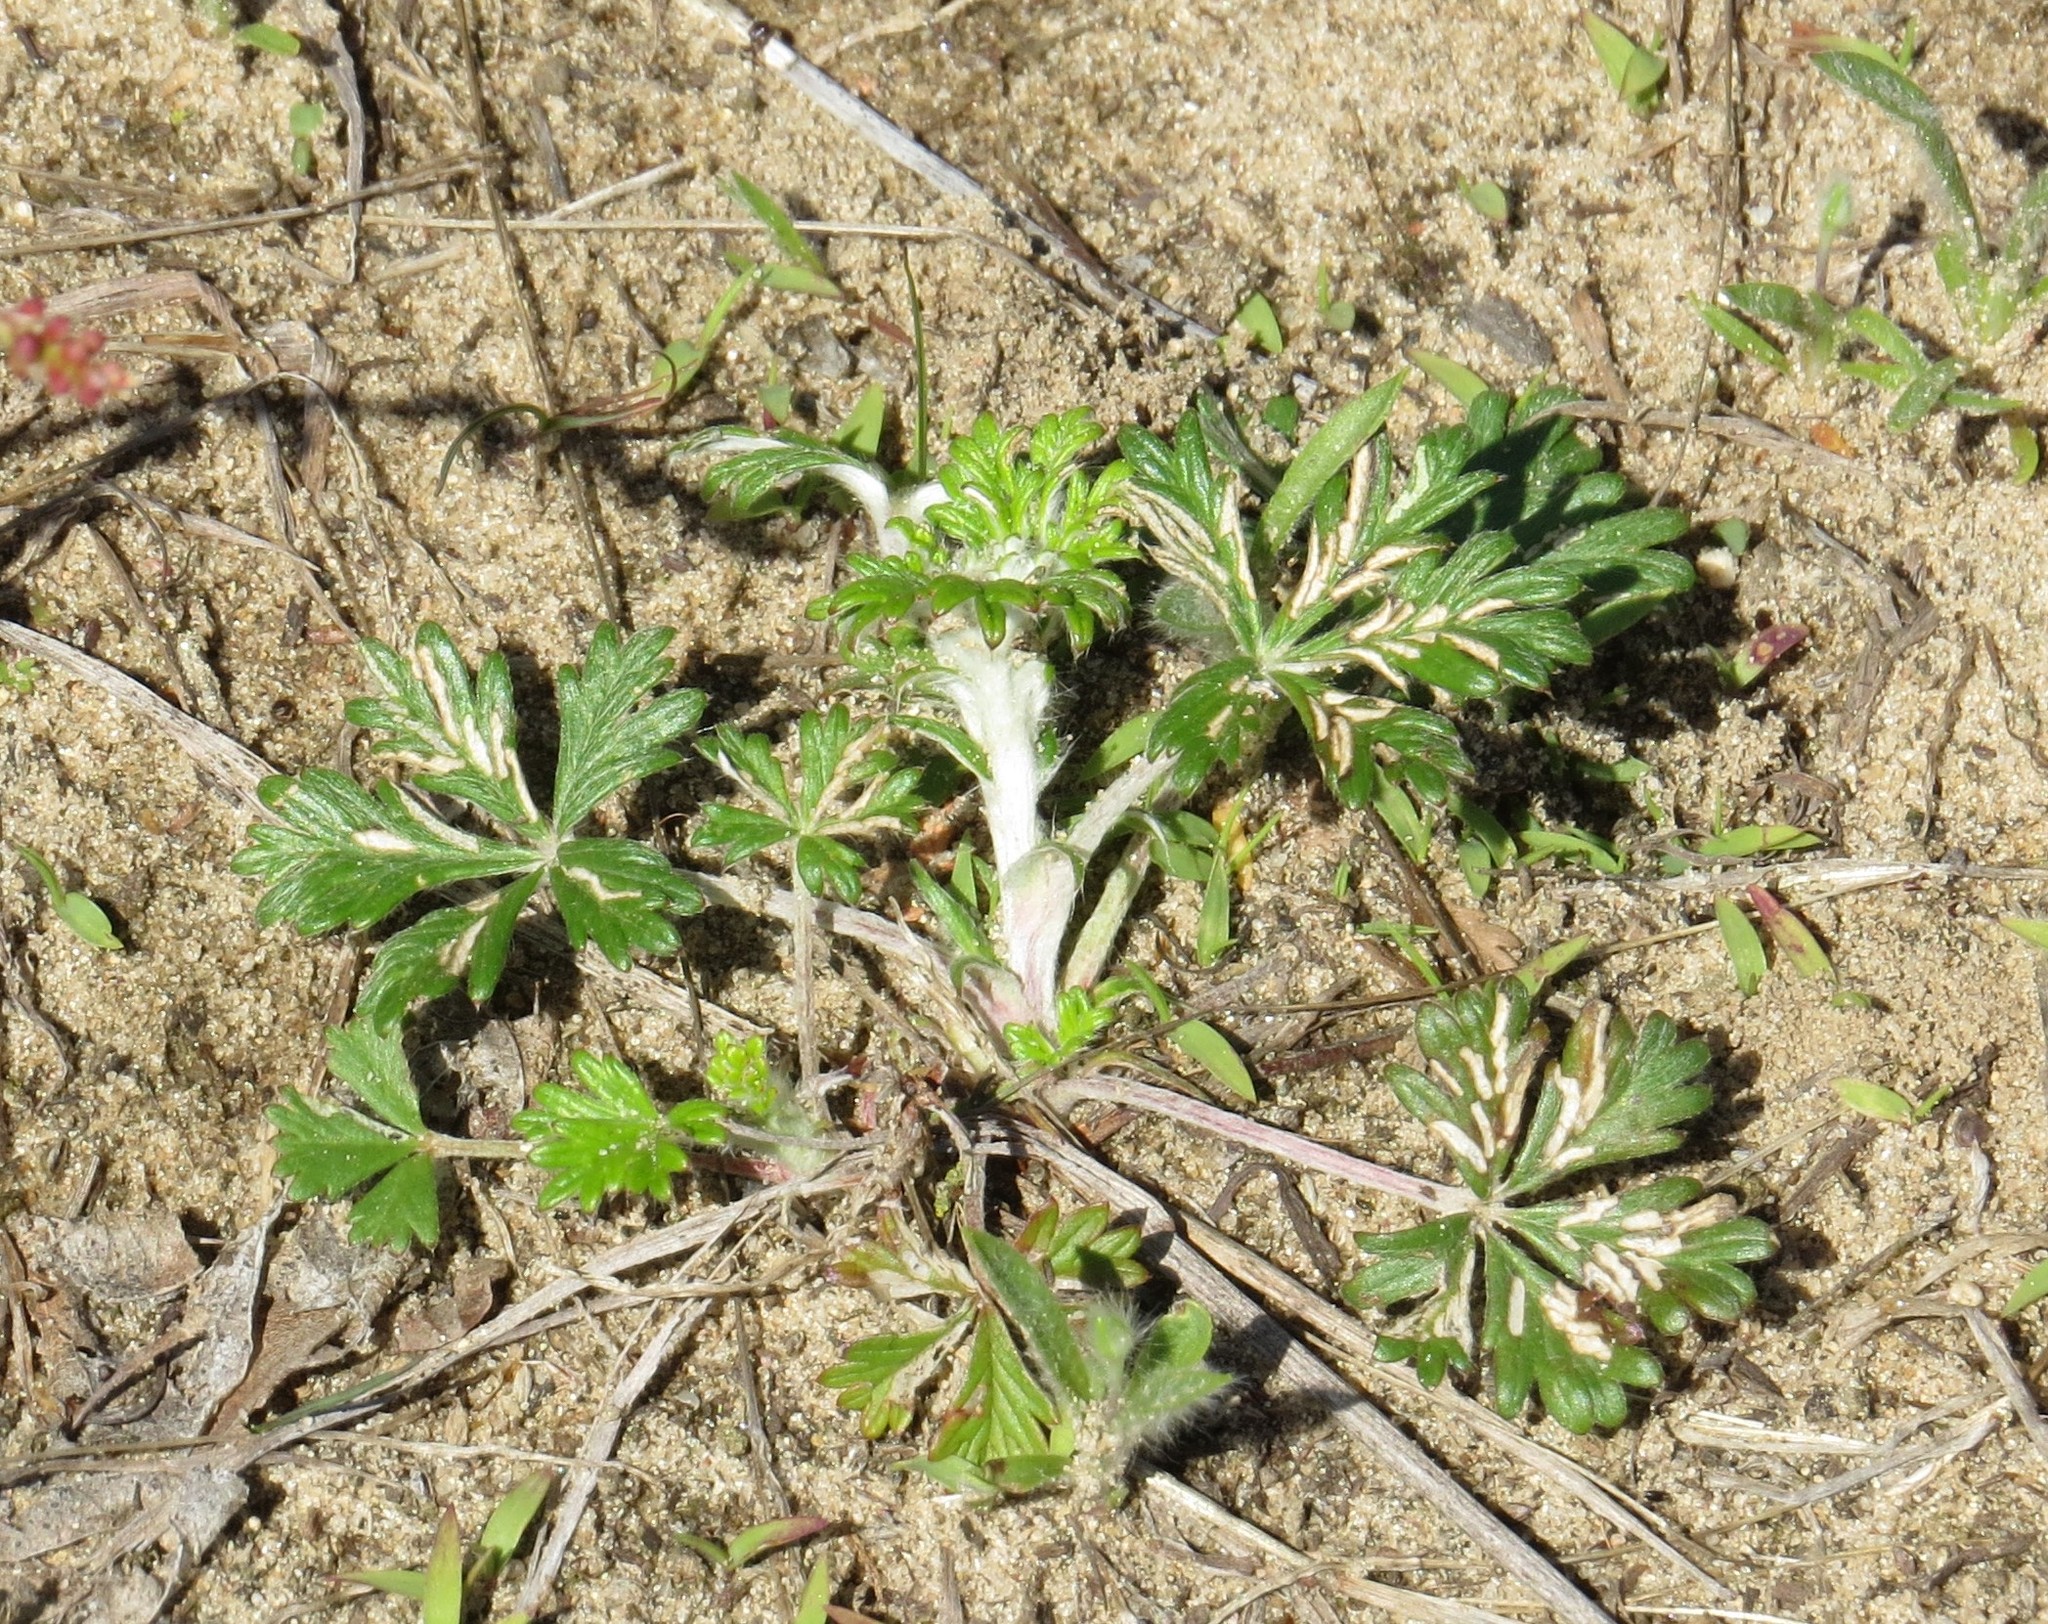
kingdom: Plantae
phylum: Tracheophyta
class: Magnoliopsida
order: Rosales
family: Rosaceae
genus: Potentilla
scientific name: Potentilla argentea
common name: Hoary cinquefoil
